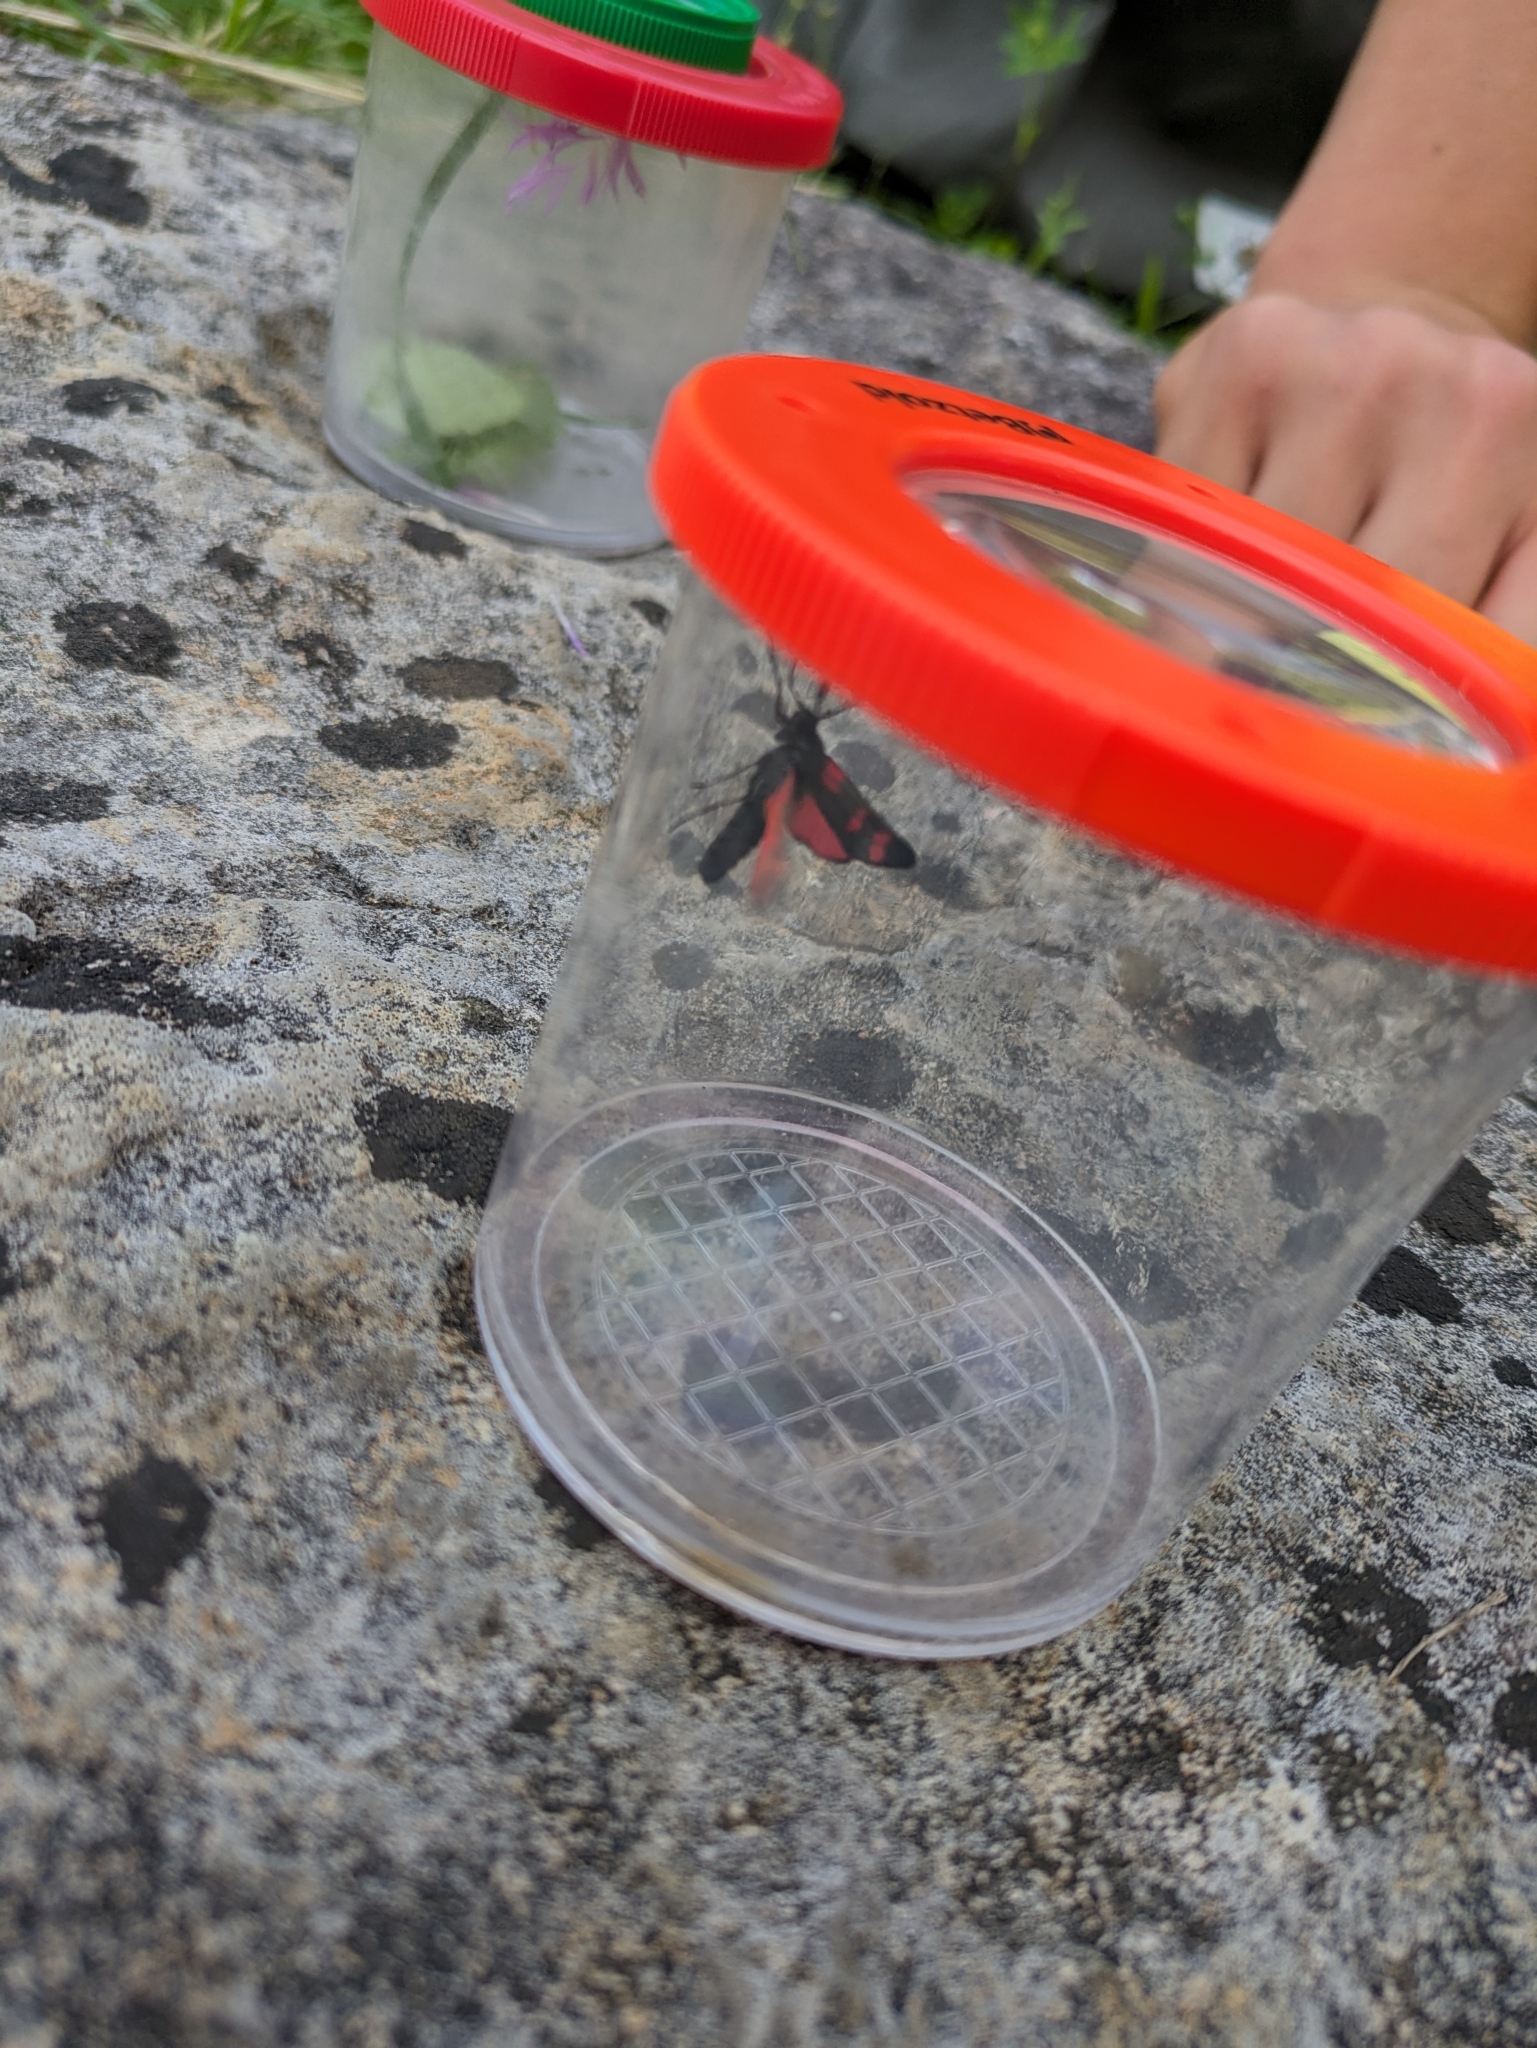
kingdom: Animalia
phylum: Arthropoda
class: Insecta
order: Lepidoptera
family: Zygaenidae
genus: Zygaena
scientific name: Zygaena filipendulae
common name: Six-spot burnet
